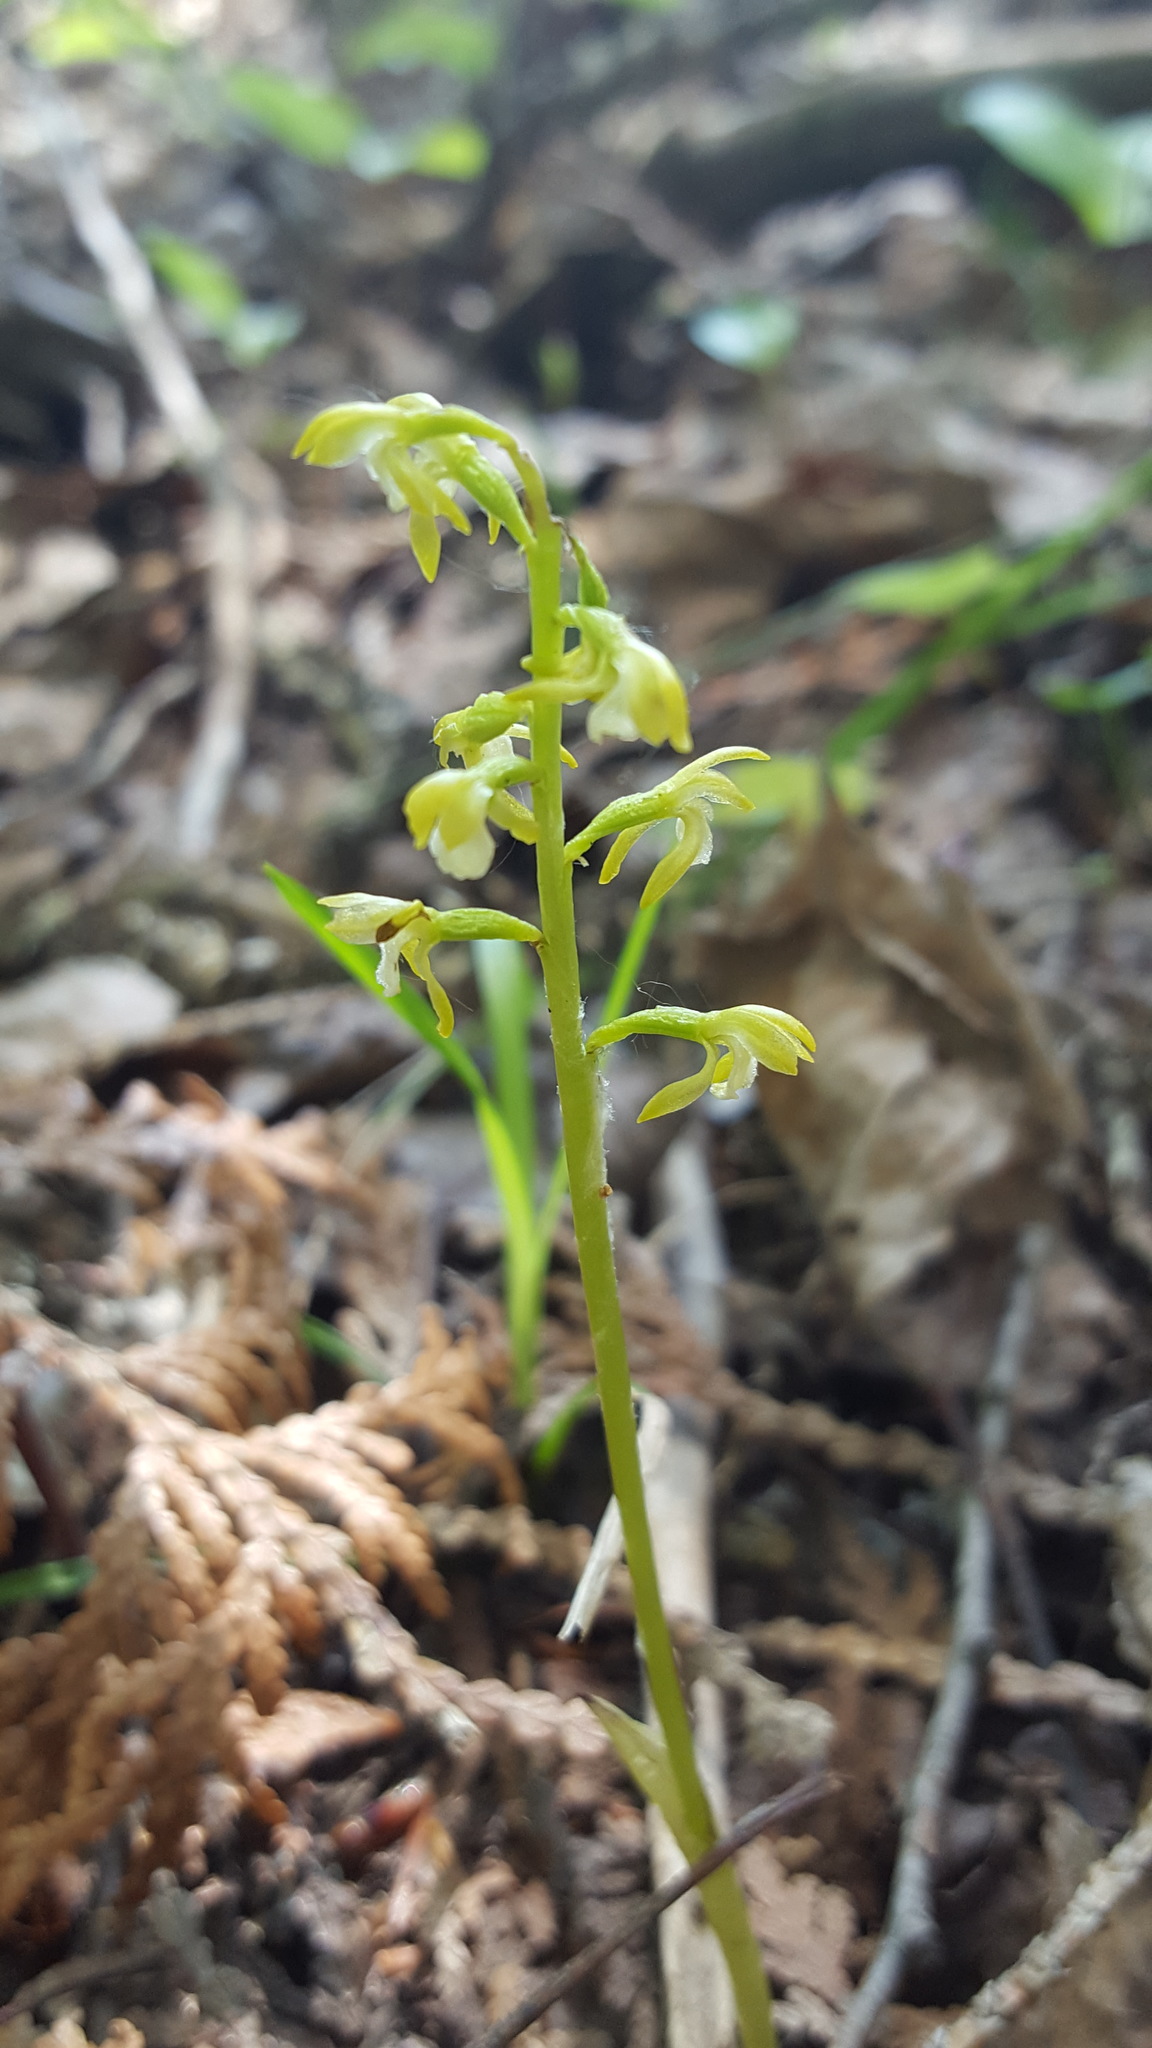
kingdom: Plantae
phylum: Tracheophyta
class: Liliopsida
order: Asparagales
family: Orchidaceae
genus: Corallorhiza
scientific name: Corallorhiza trifida
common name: Yellow coralroot
